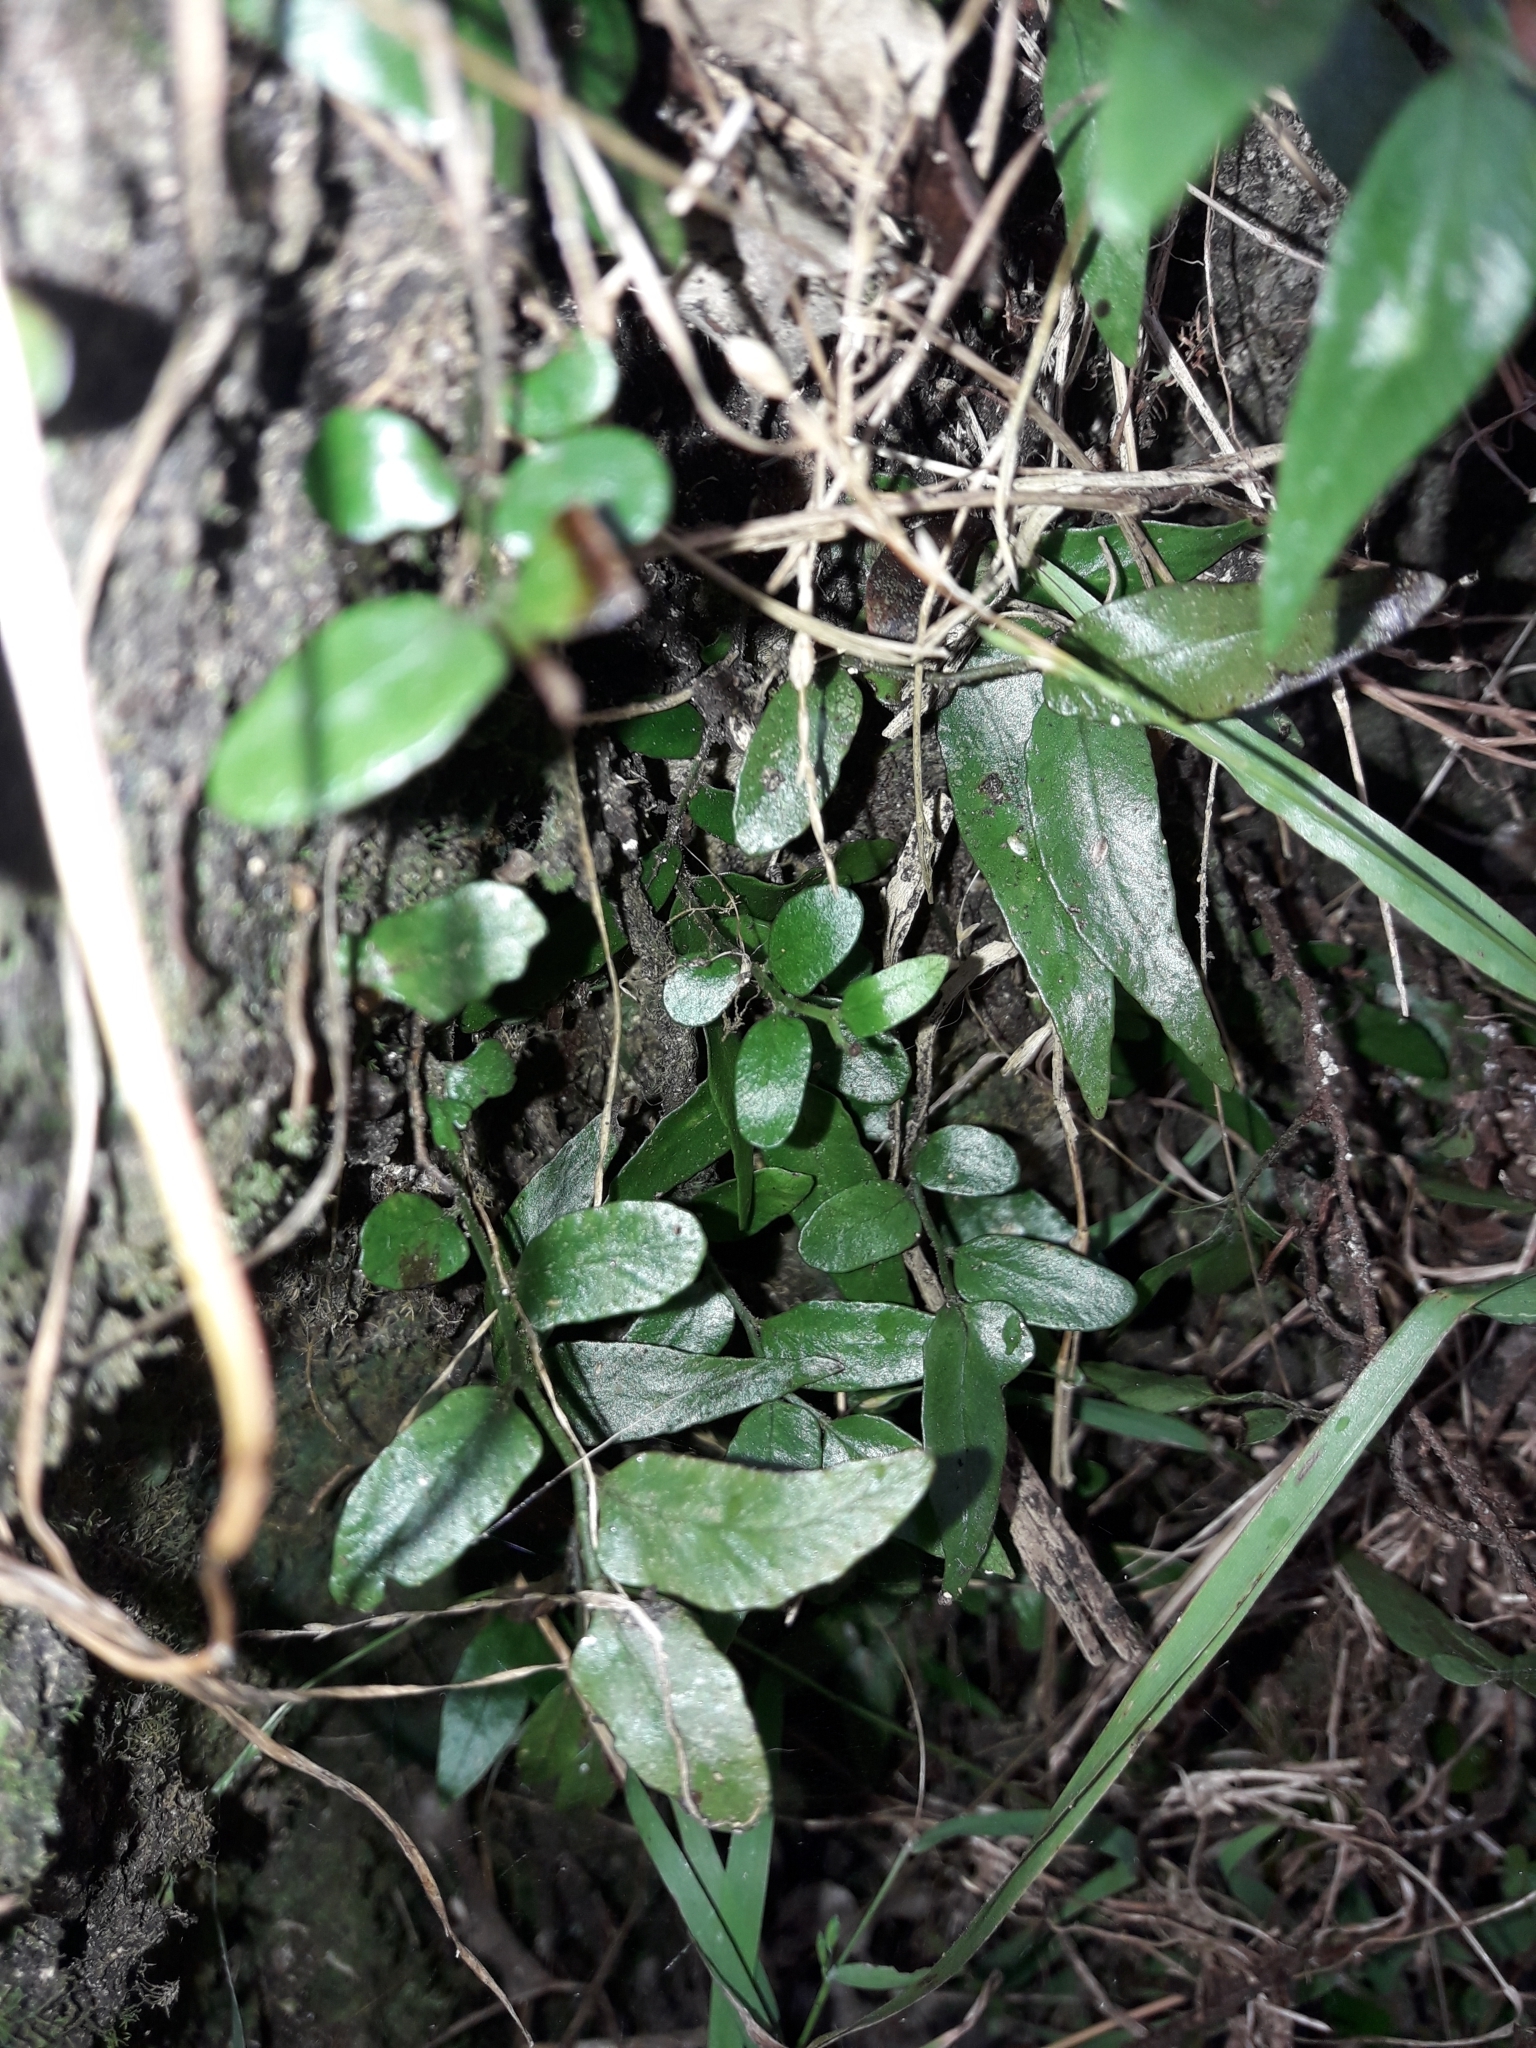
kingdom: Plantae
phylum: Tracheophyta
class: Polypodiopsida
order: Polypodiales
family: Tectariaceae
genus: Arthropteris
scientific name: Arthropteris tenella
